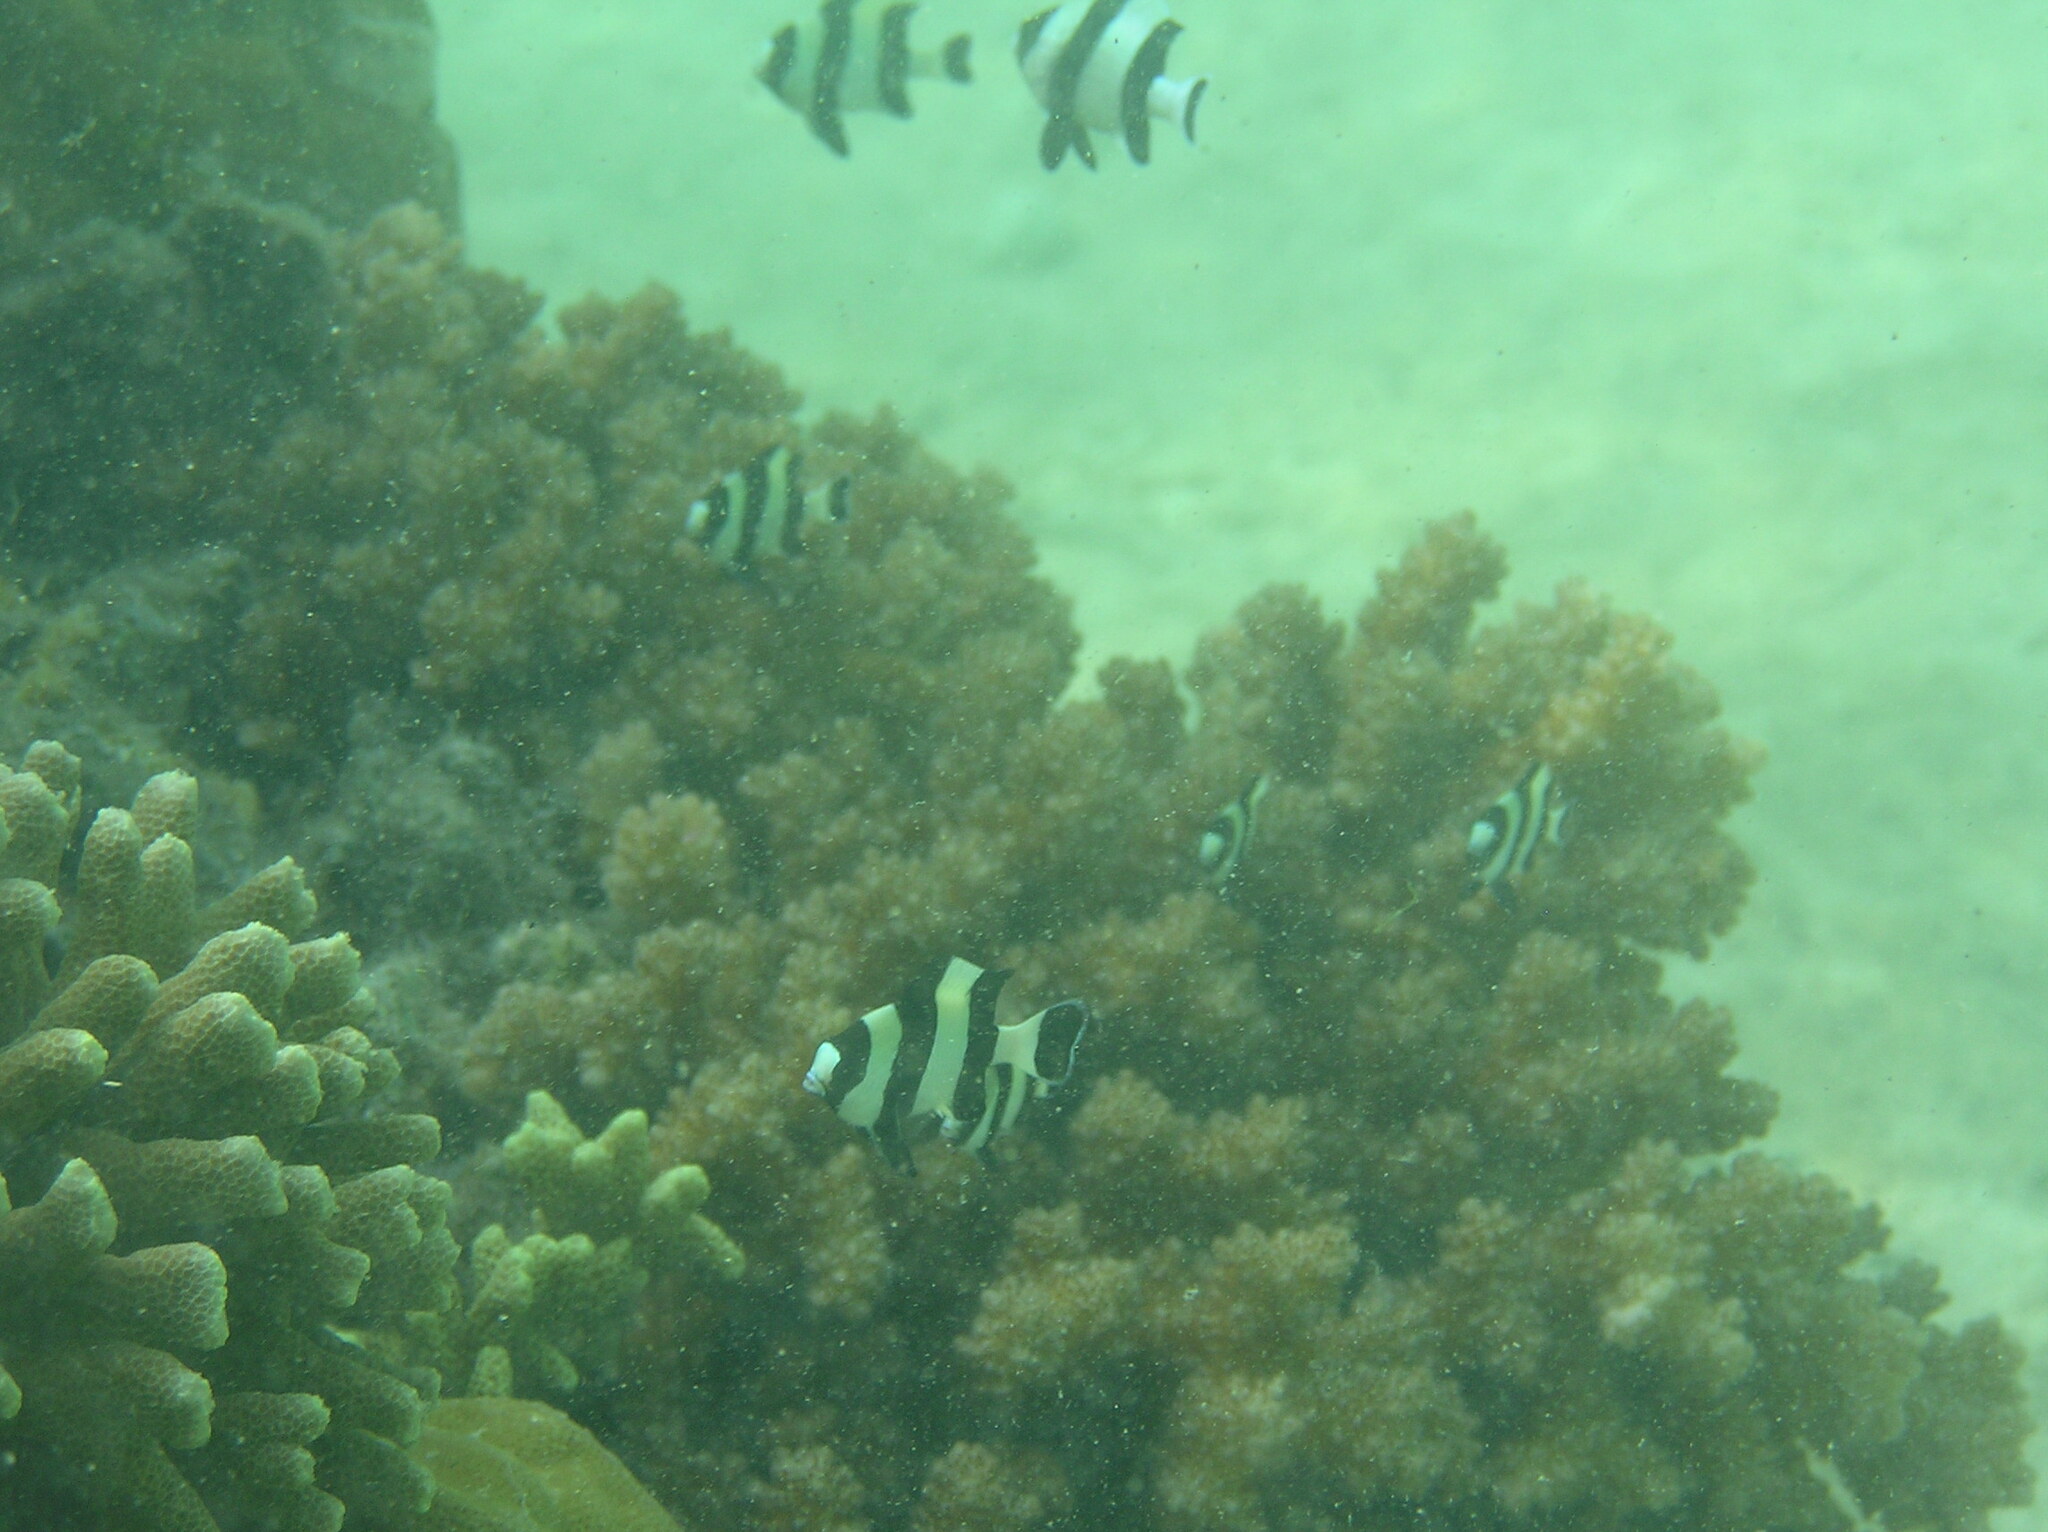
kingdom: Animalia
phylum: Chordata
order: Perciformes
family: Pomacentridae
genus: Dascyllus
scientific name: Dascyllus melanurus
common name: Black-tail dascyllus
